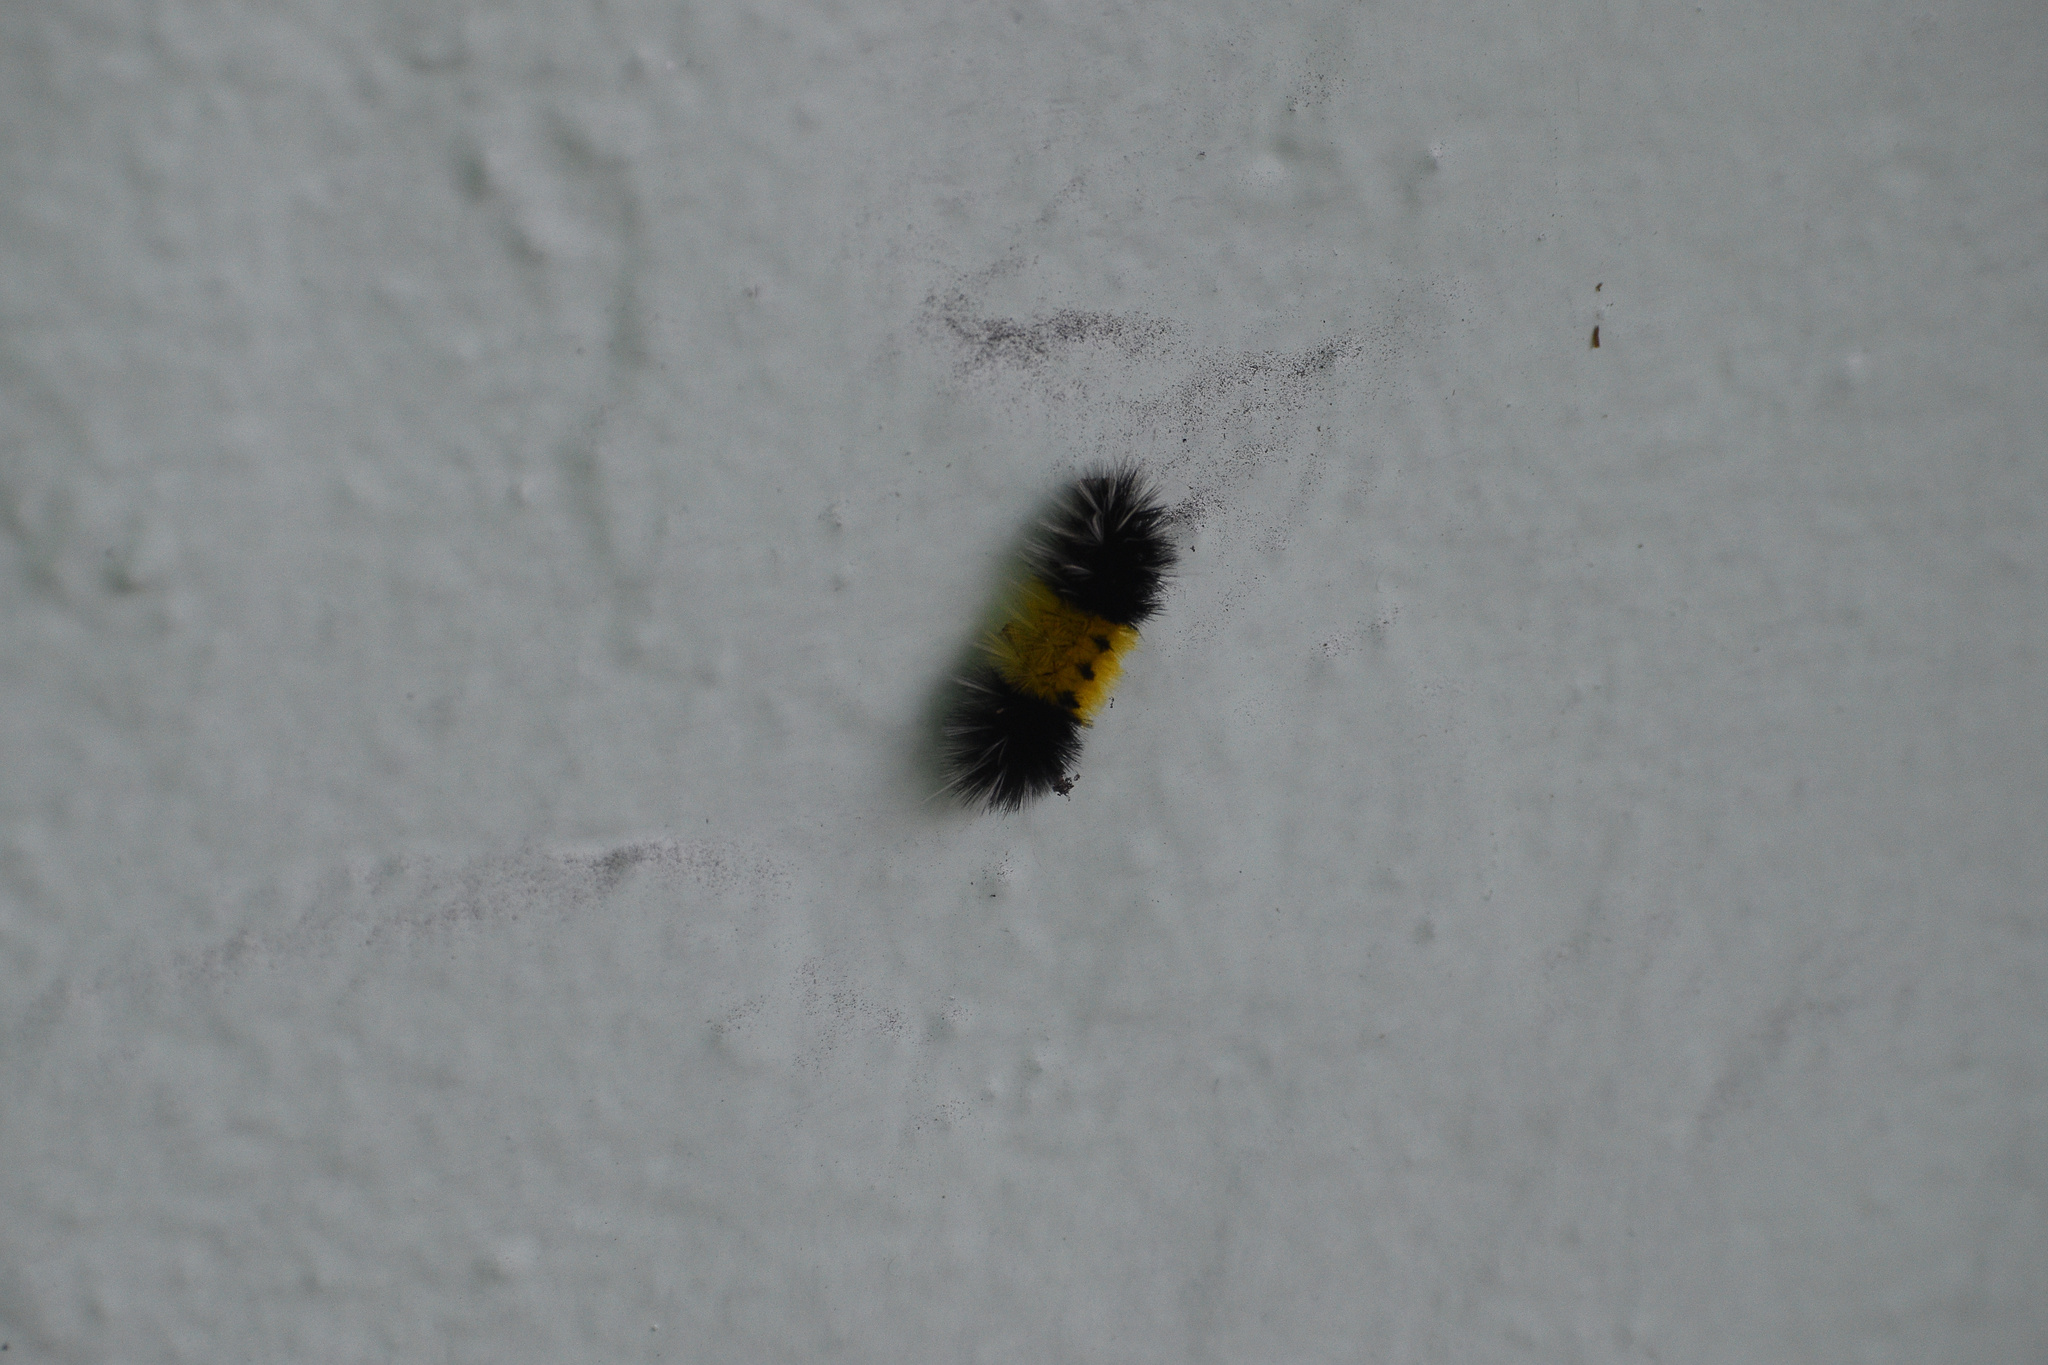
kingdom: Animalia
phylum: Arthropoda
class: Insecta
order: Lepidoptera
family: Erebidae
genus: Lophocampa
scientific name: Lophocampa maculata
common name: Spotted tussock moth
